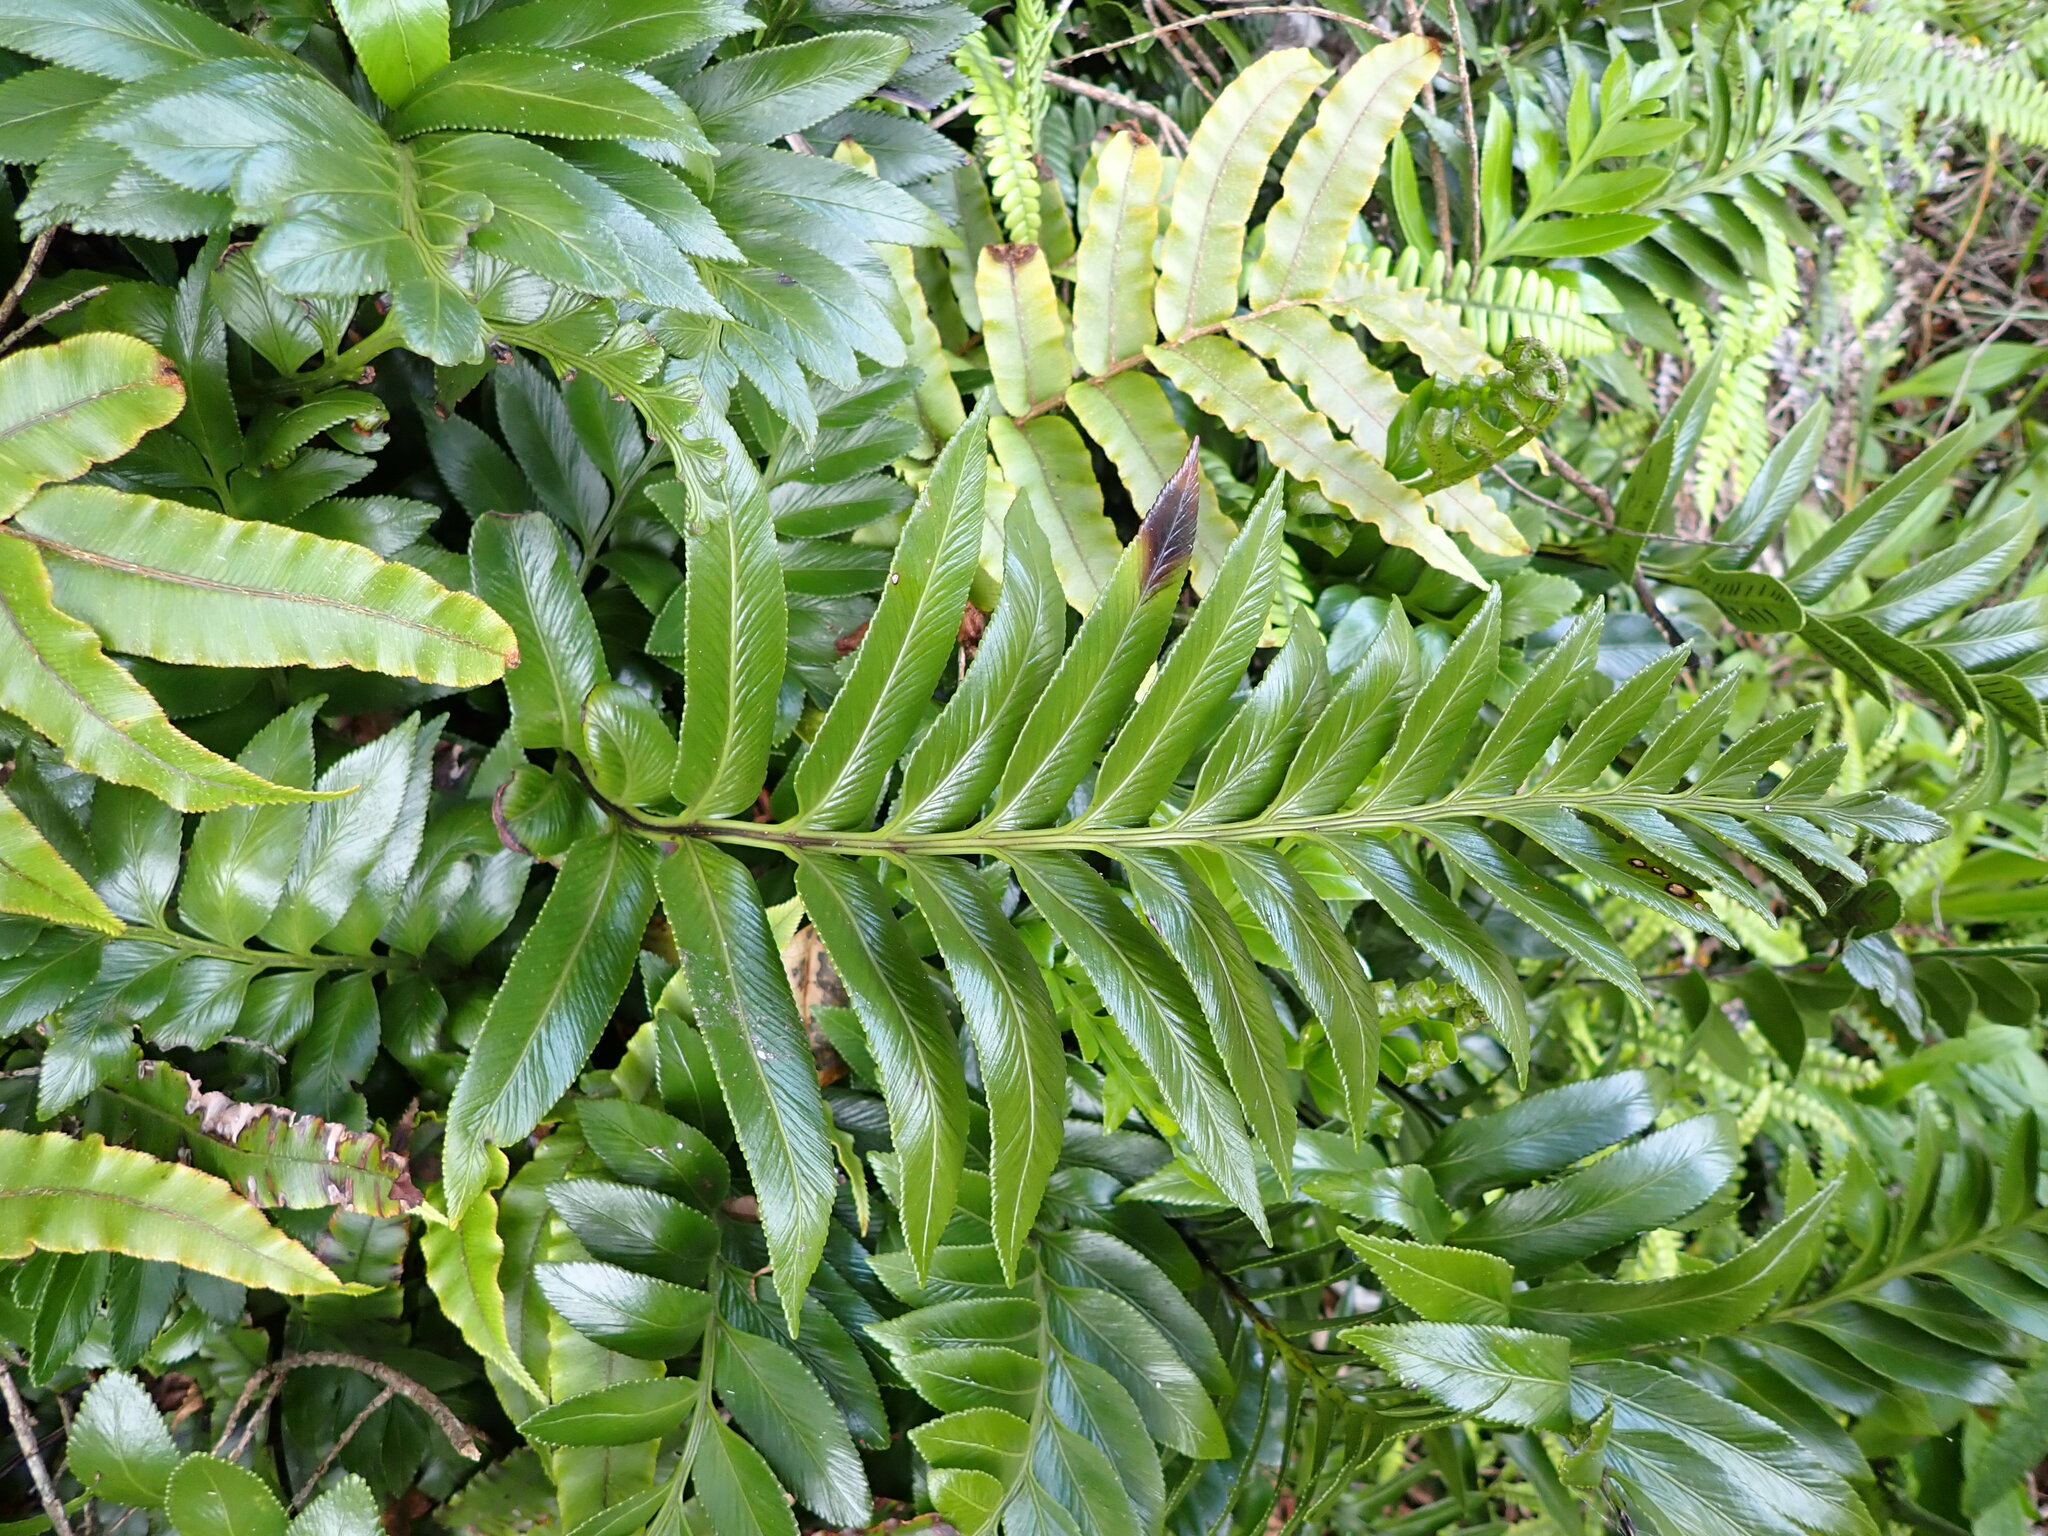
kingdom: Plantae
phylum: Tracheophyta
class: Polypodiopsida
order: Polypodiales
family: Aspleniaceae
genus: Asplenium
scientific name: Asplenium obtusatum
